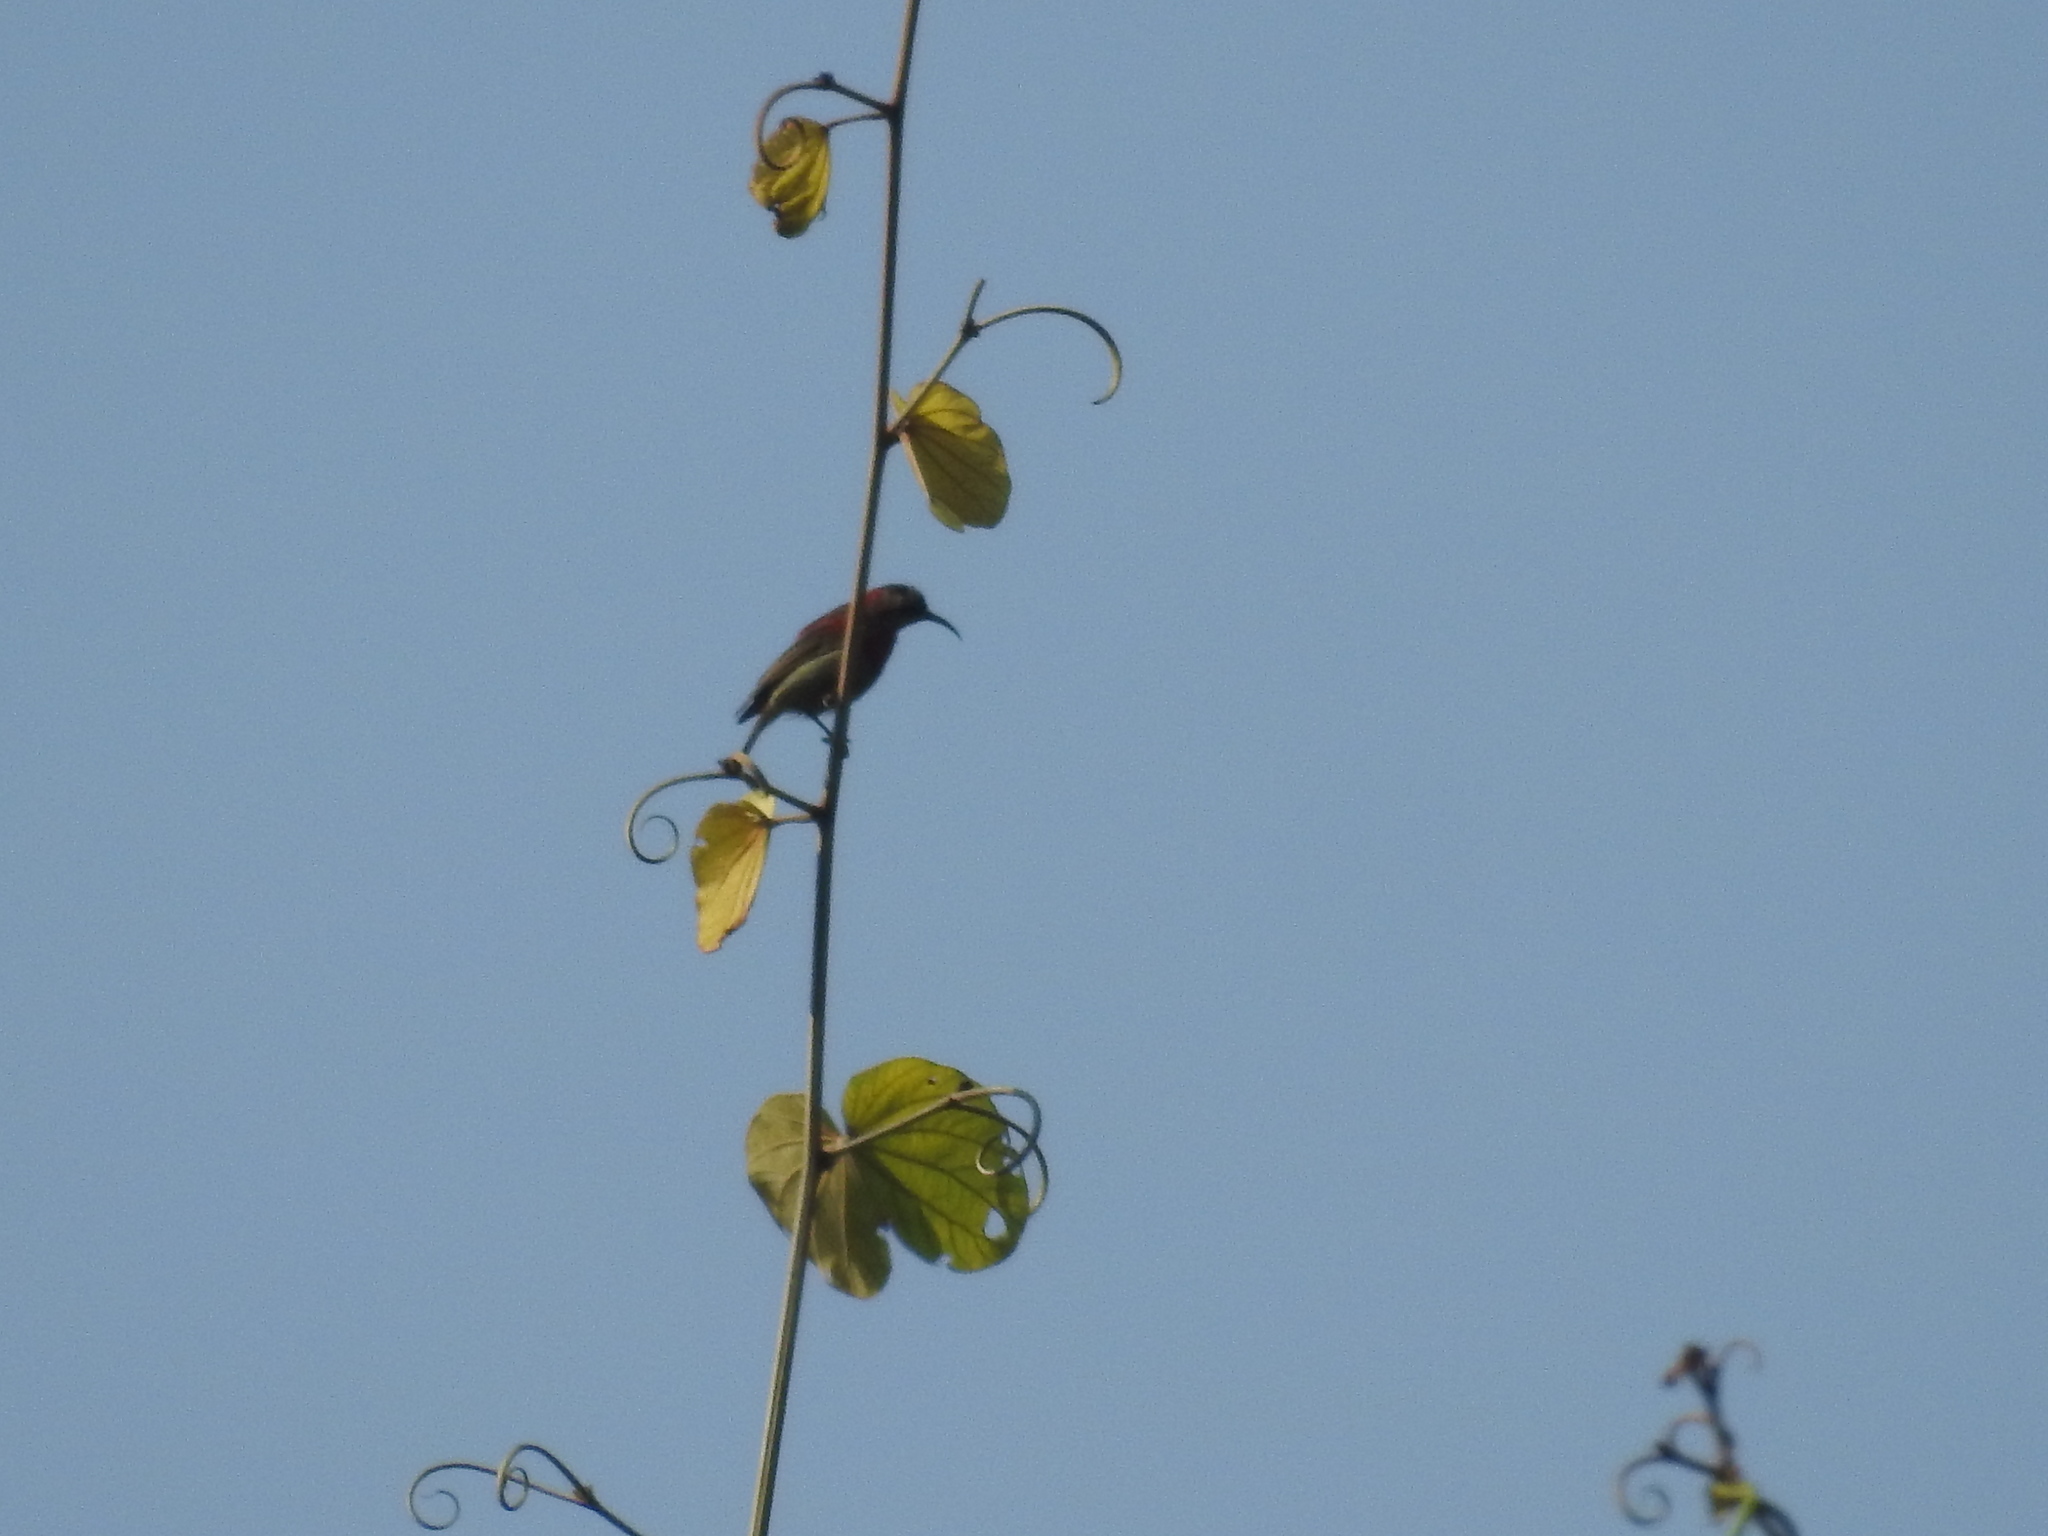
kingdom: Animalia
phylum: Chordata
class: Aves
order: Passeriformes
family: Nectariniidae
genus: Aethopyga
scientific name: Aethopyga siparaja
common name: Crimson sunbird
